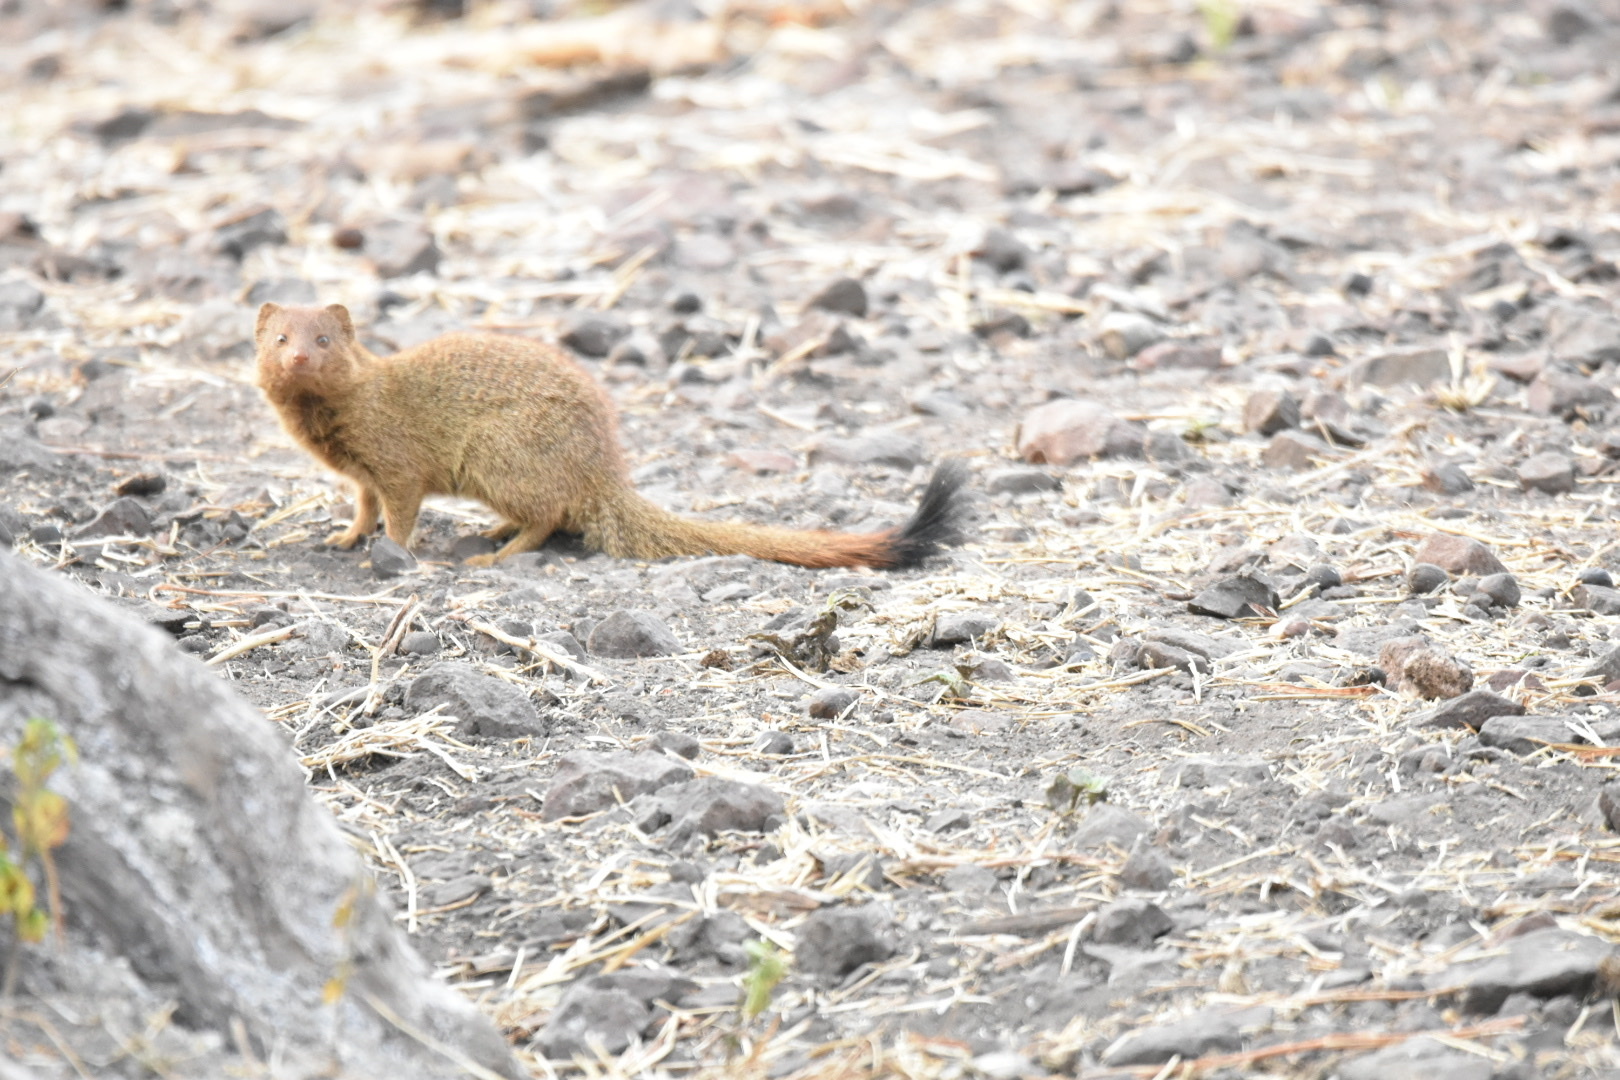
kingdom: Animalia
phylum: Chordata
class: Mammalia
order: Carnivora
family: Herpestidae
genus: Galerella
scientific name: Galerella sanguinea
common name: Slender mongoose
